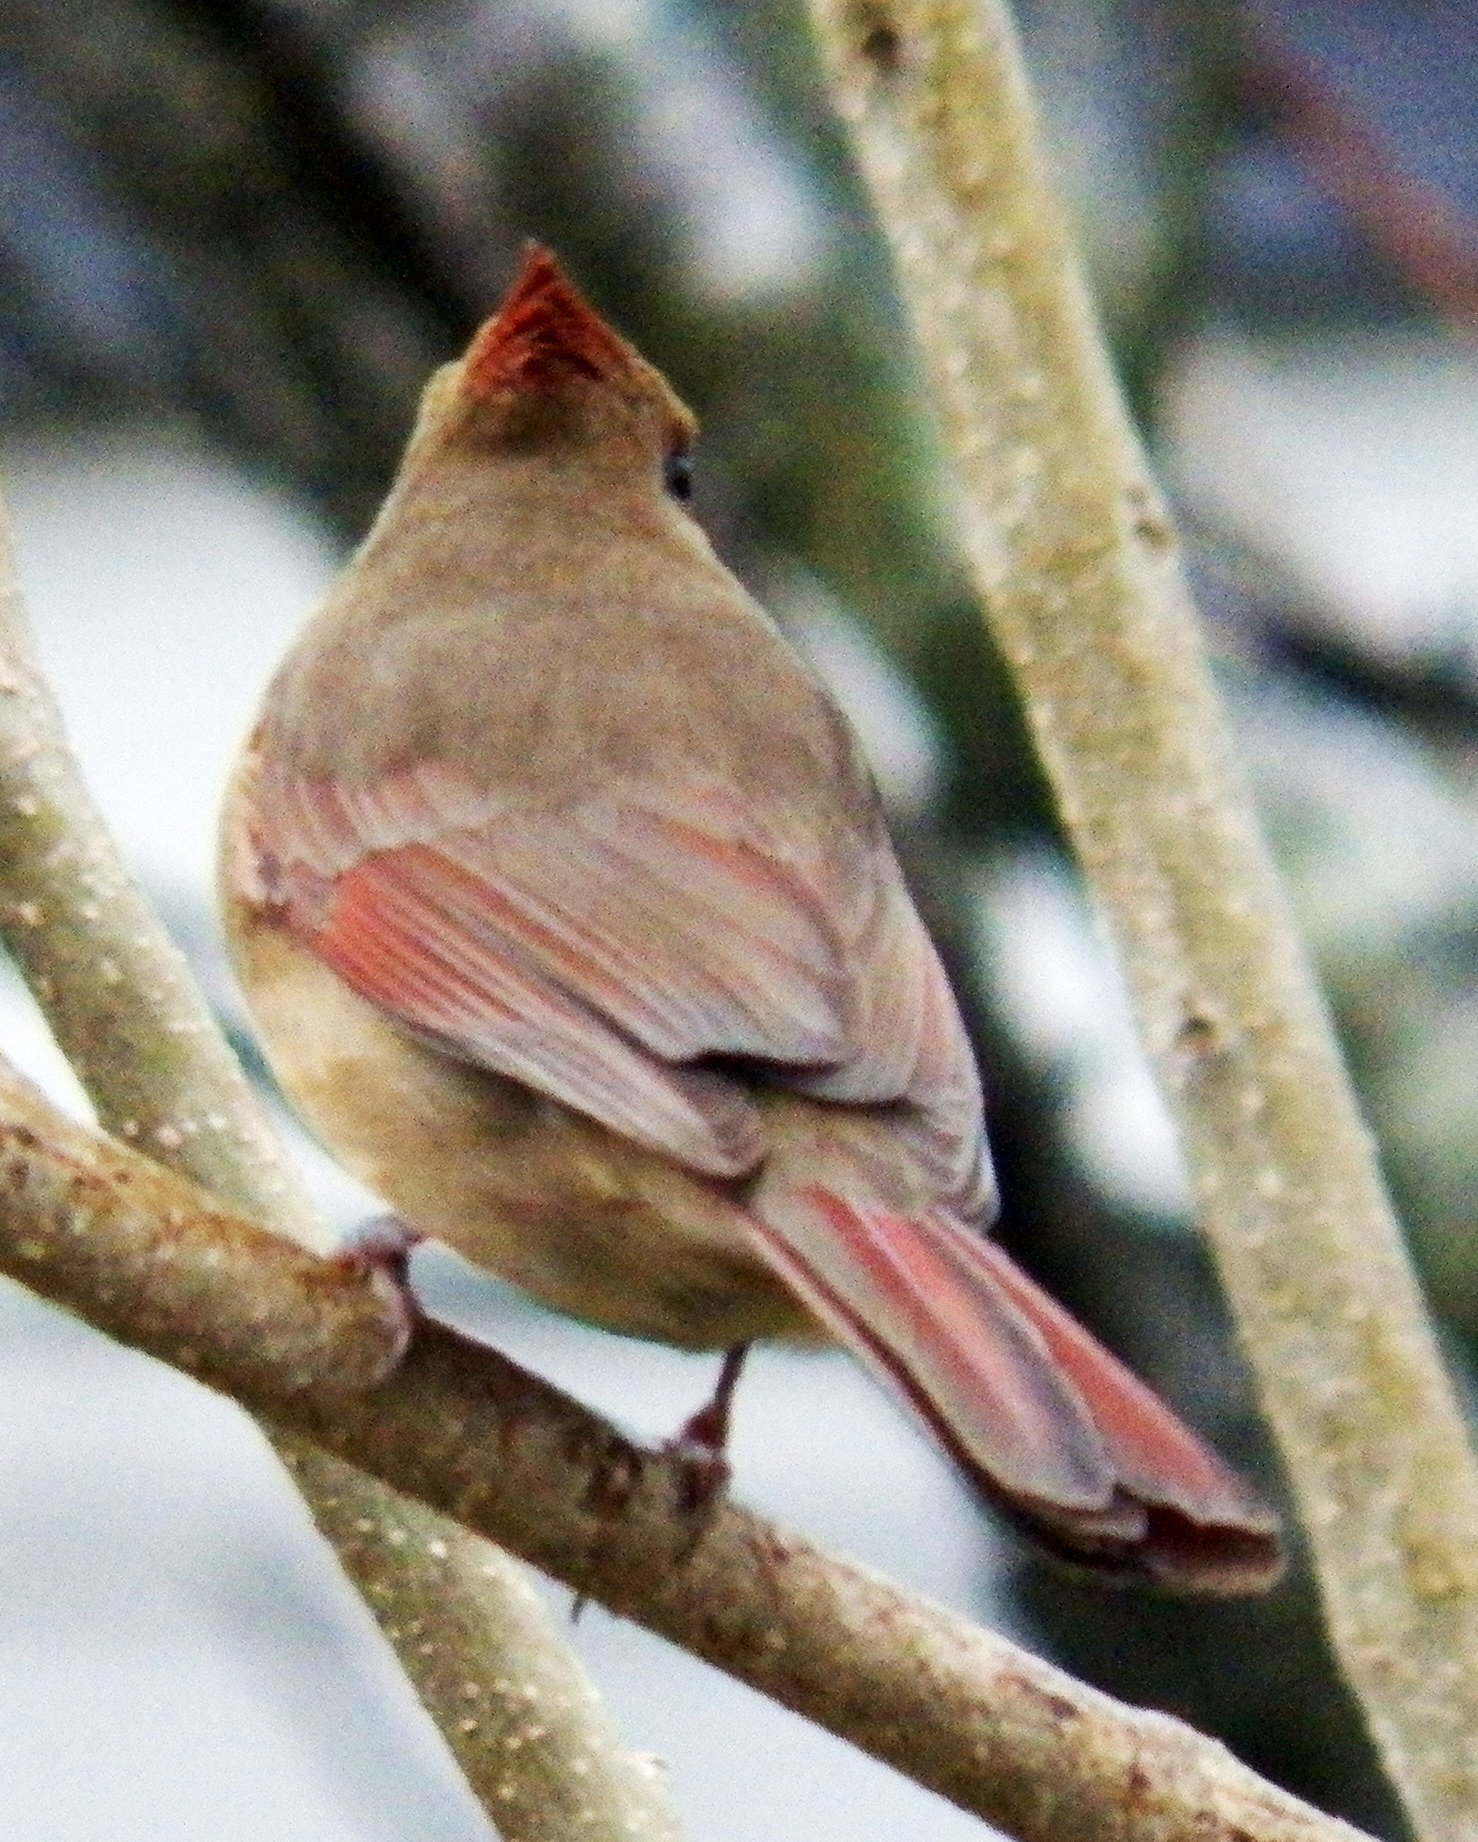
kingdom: Animalia
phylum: Chordata
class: Aves
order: Passeriformes
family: Cardinalidae
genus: Cardinalis
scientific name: Cardinalis cardinalis
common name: Northern cardinal
